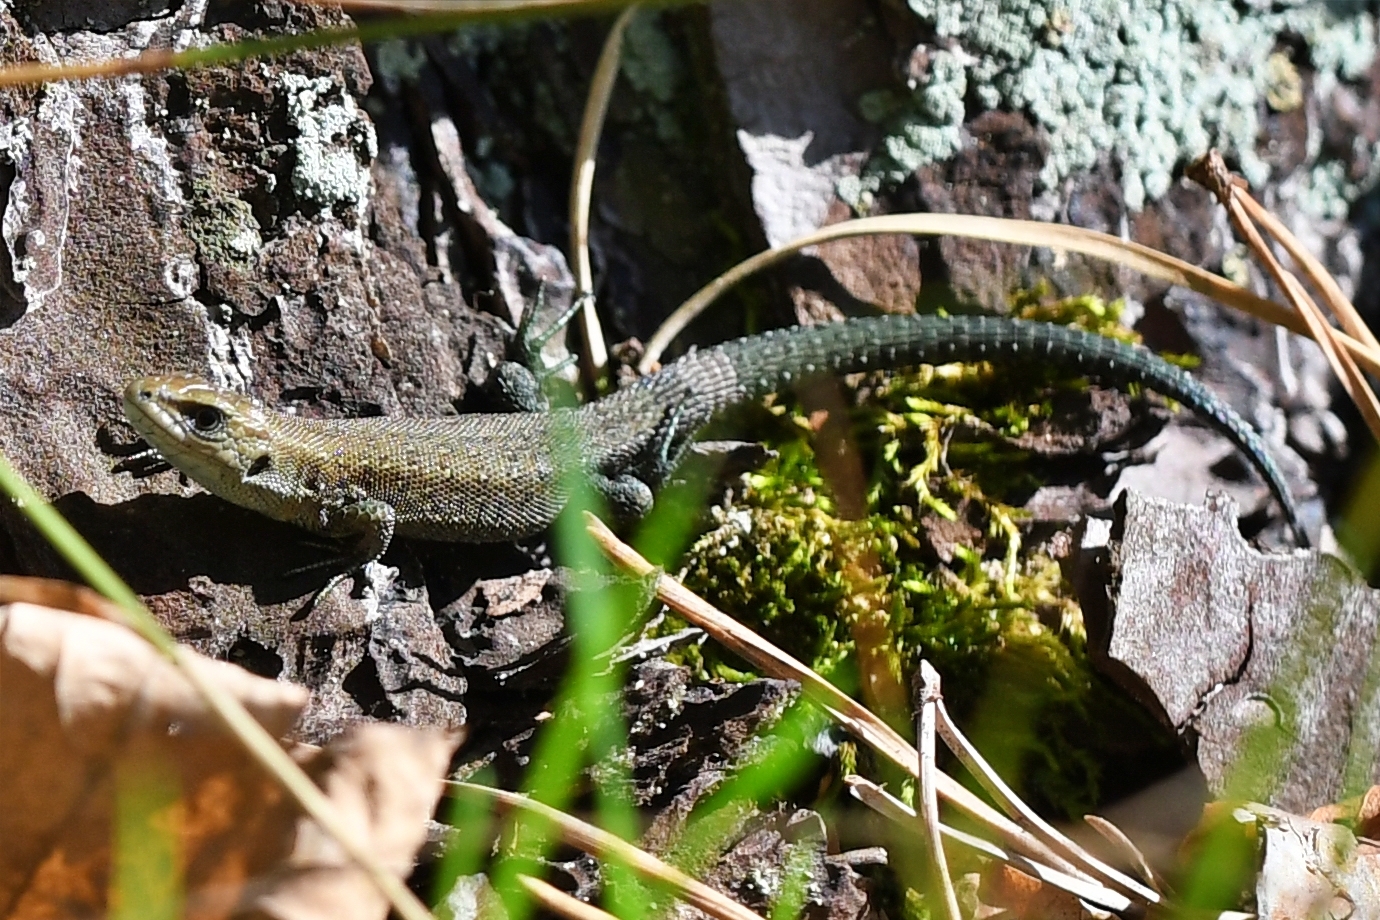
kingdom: Animalia
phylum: Chordata
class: Squamata
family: Lacertidae
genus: Zootoca
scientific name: Zootoca vivipara
